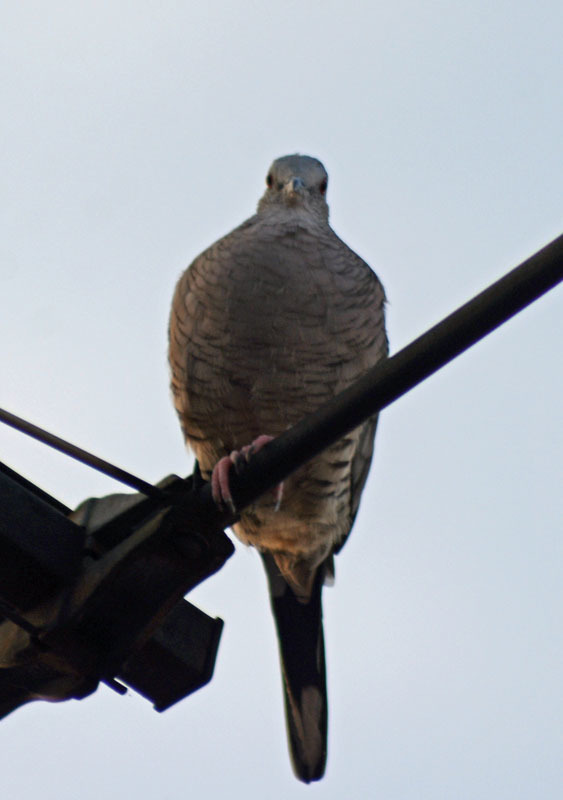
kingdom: Animalia
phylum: Chordata
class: Aves
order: Columbiformes
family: Columbidae
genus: Columbina
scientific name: Columbina inca
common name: Inca dove
